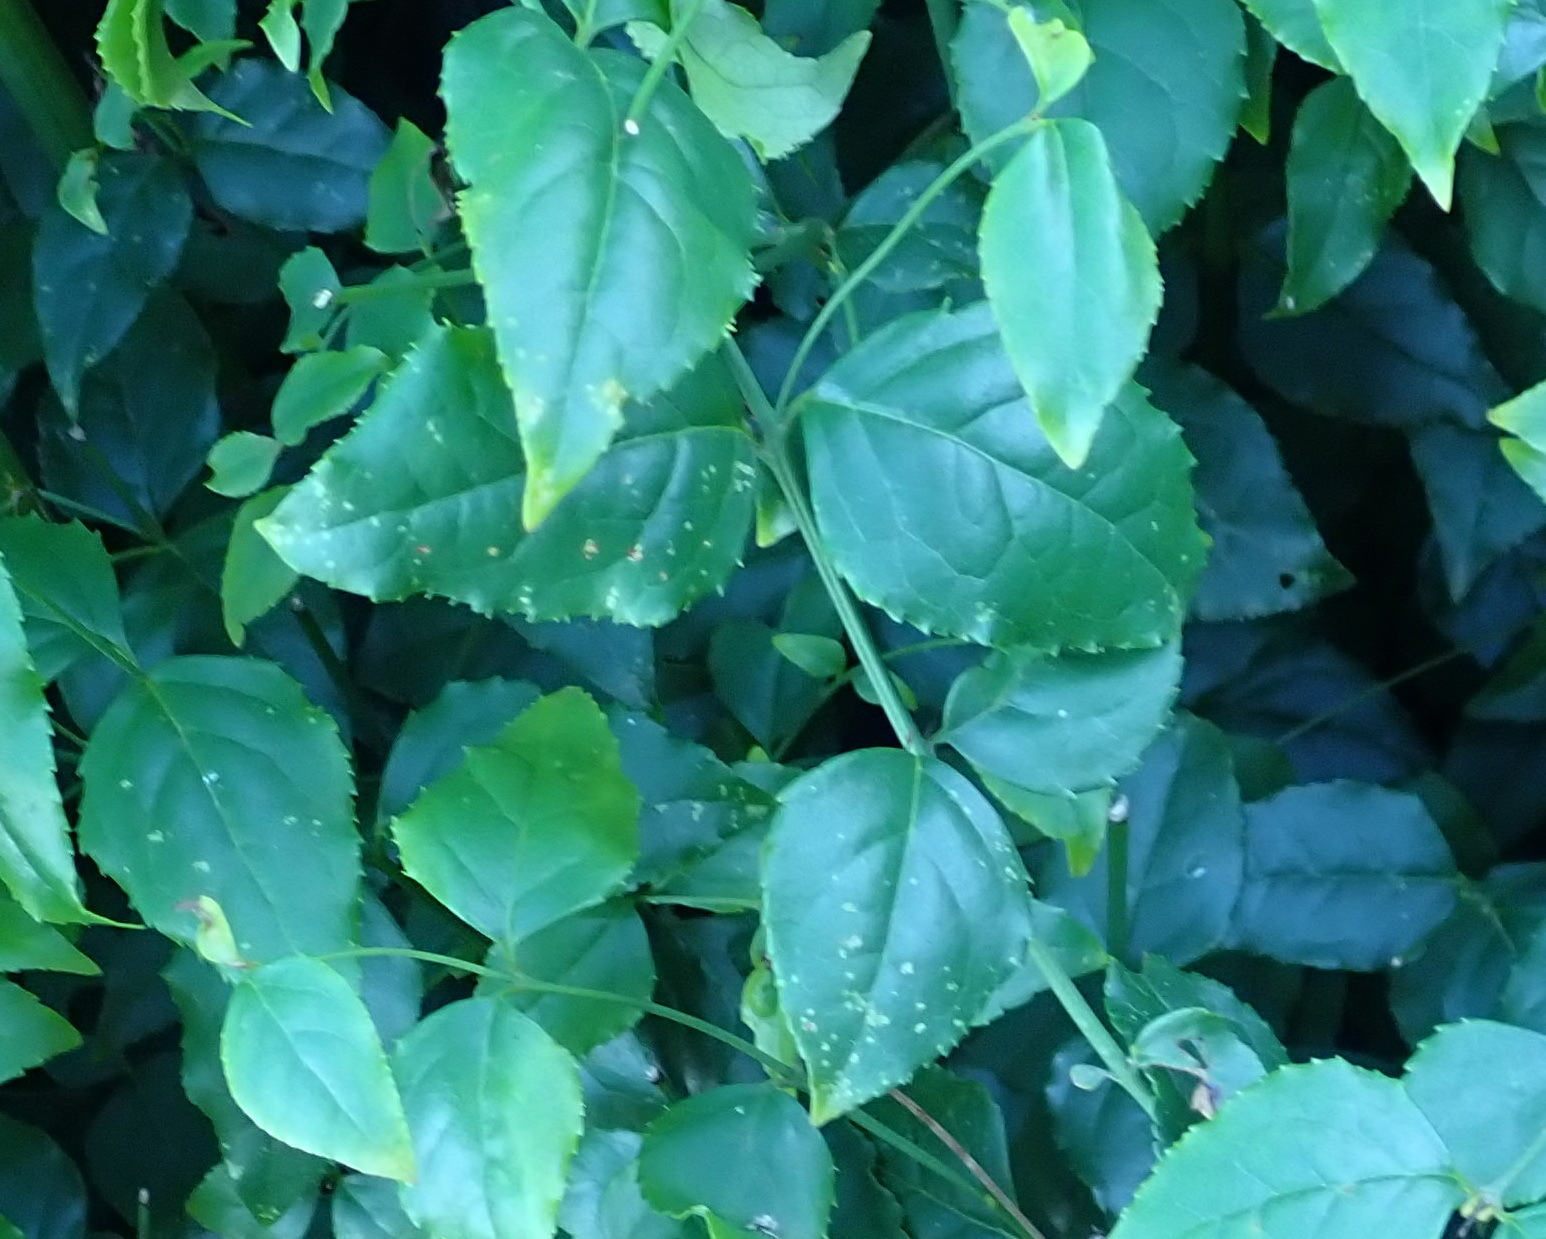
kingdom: Plantae
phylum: Tracheophyta
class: Magnoliopsida
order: Lamiales
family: Stilbaceae
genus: Halleria
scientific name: Halleria lucida
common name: Tree fuschia
